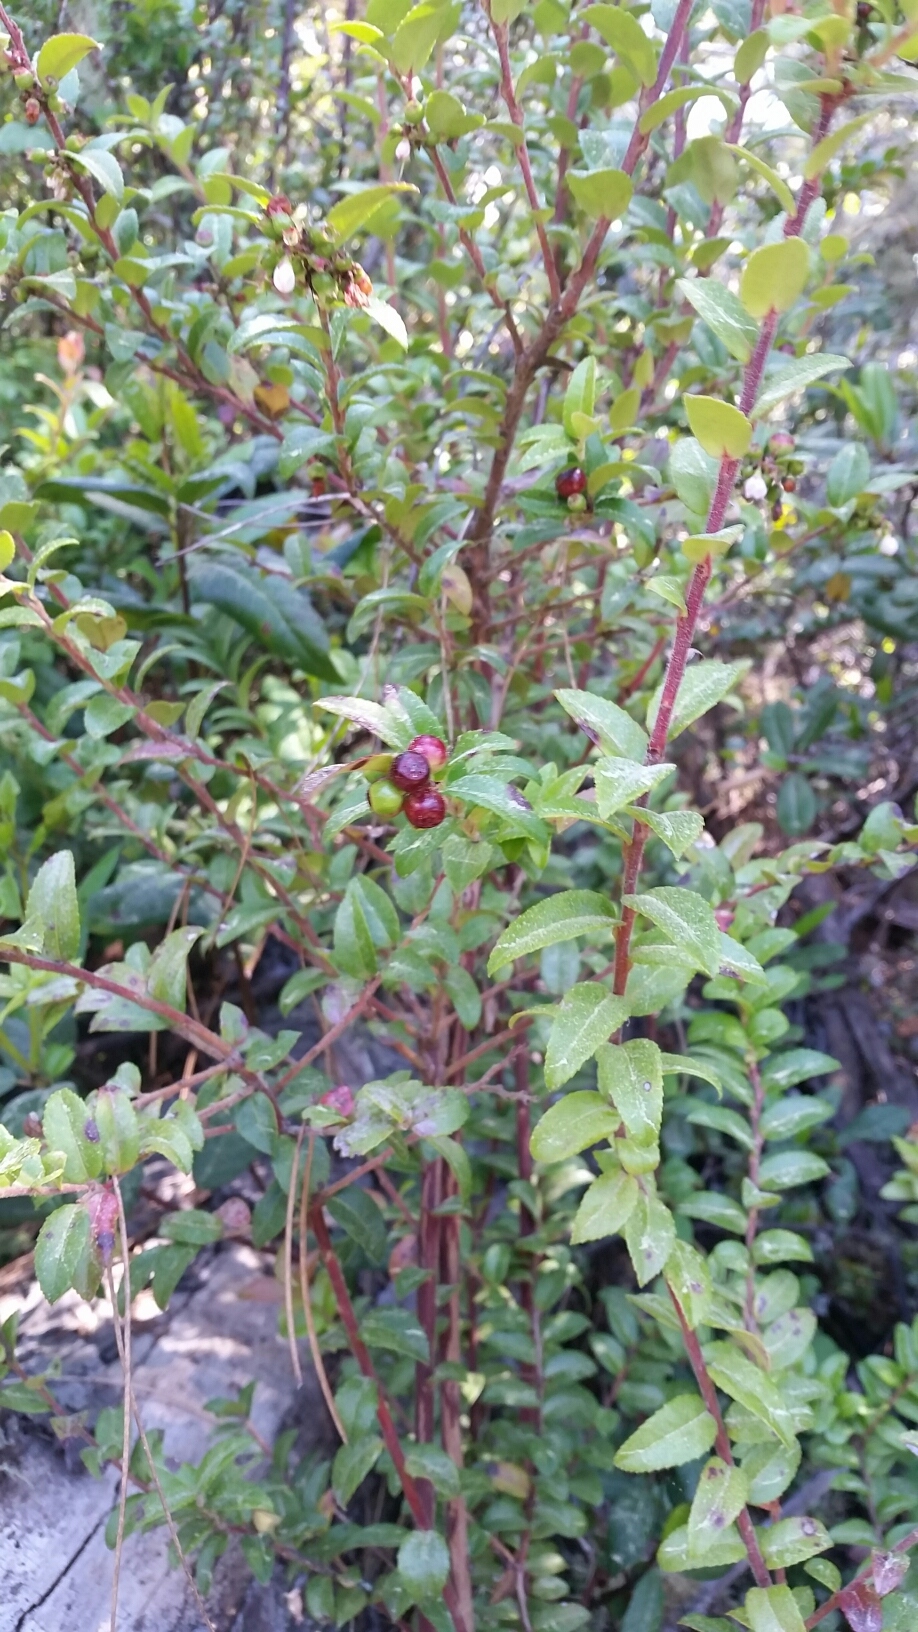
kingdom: Plantae
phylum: Tracheophyta
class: Magnoliopsida
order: Ericales
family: Ericaceae
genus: Vaccinium
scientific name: Vaccinium ovatum
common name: California-huckleberry
